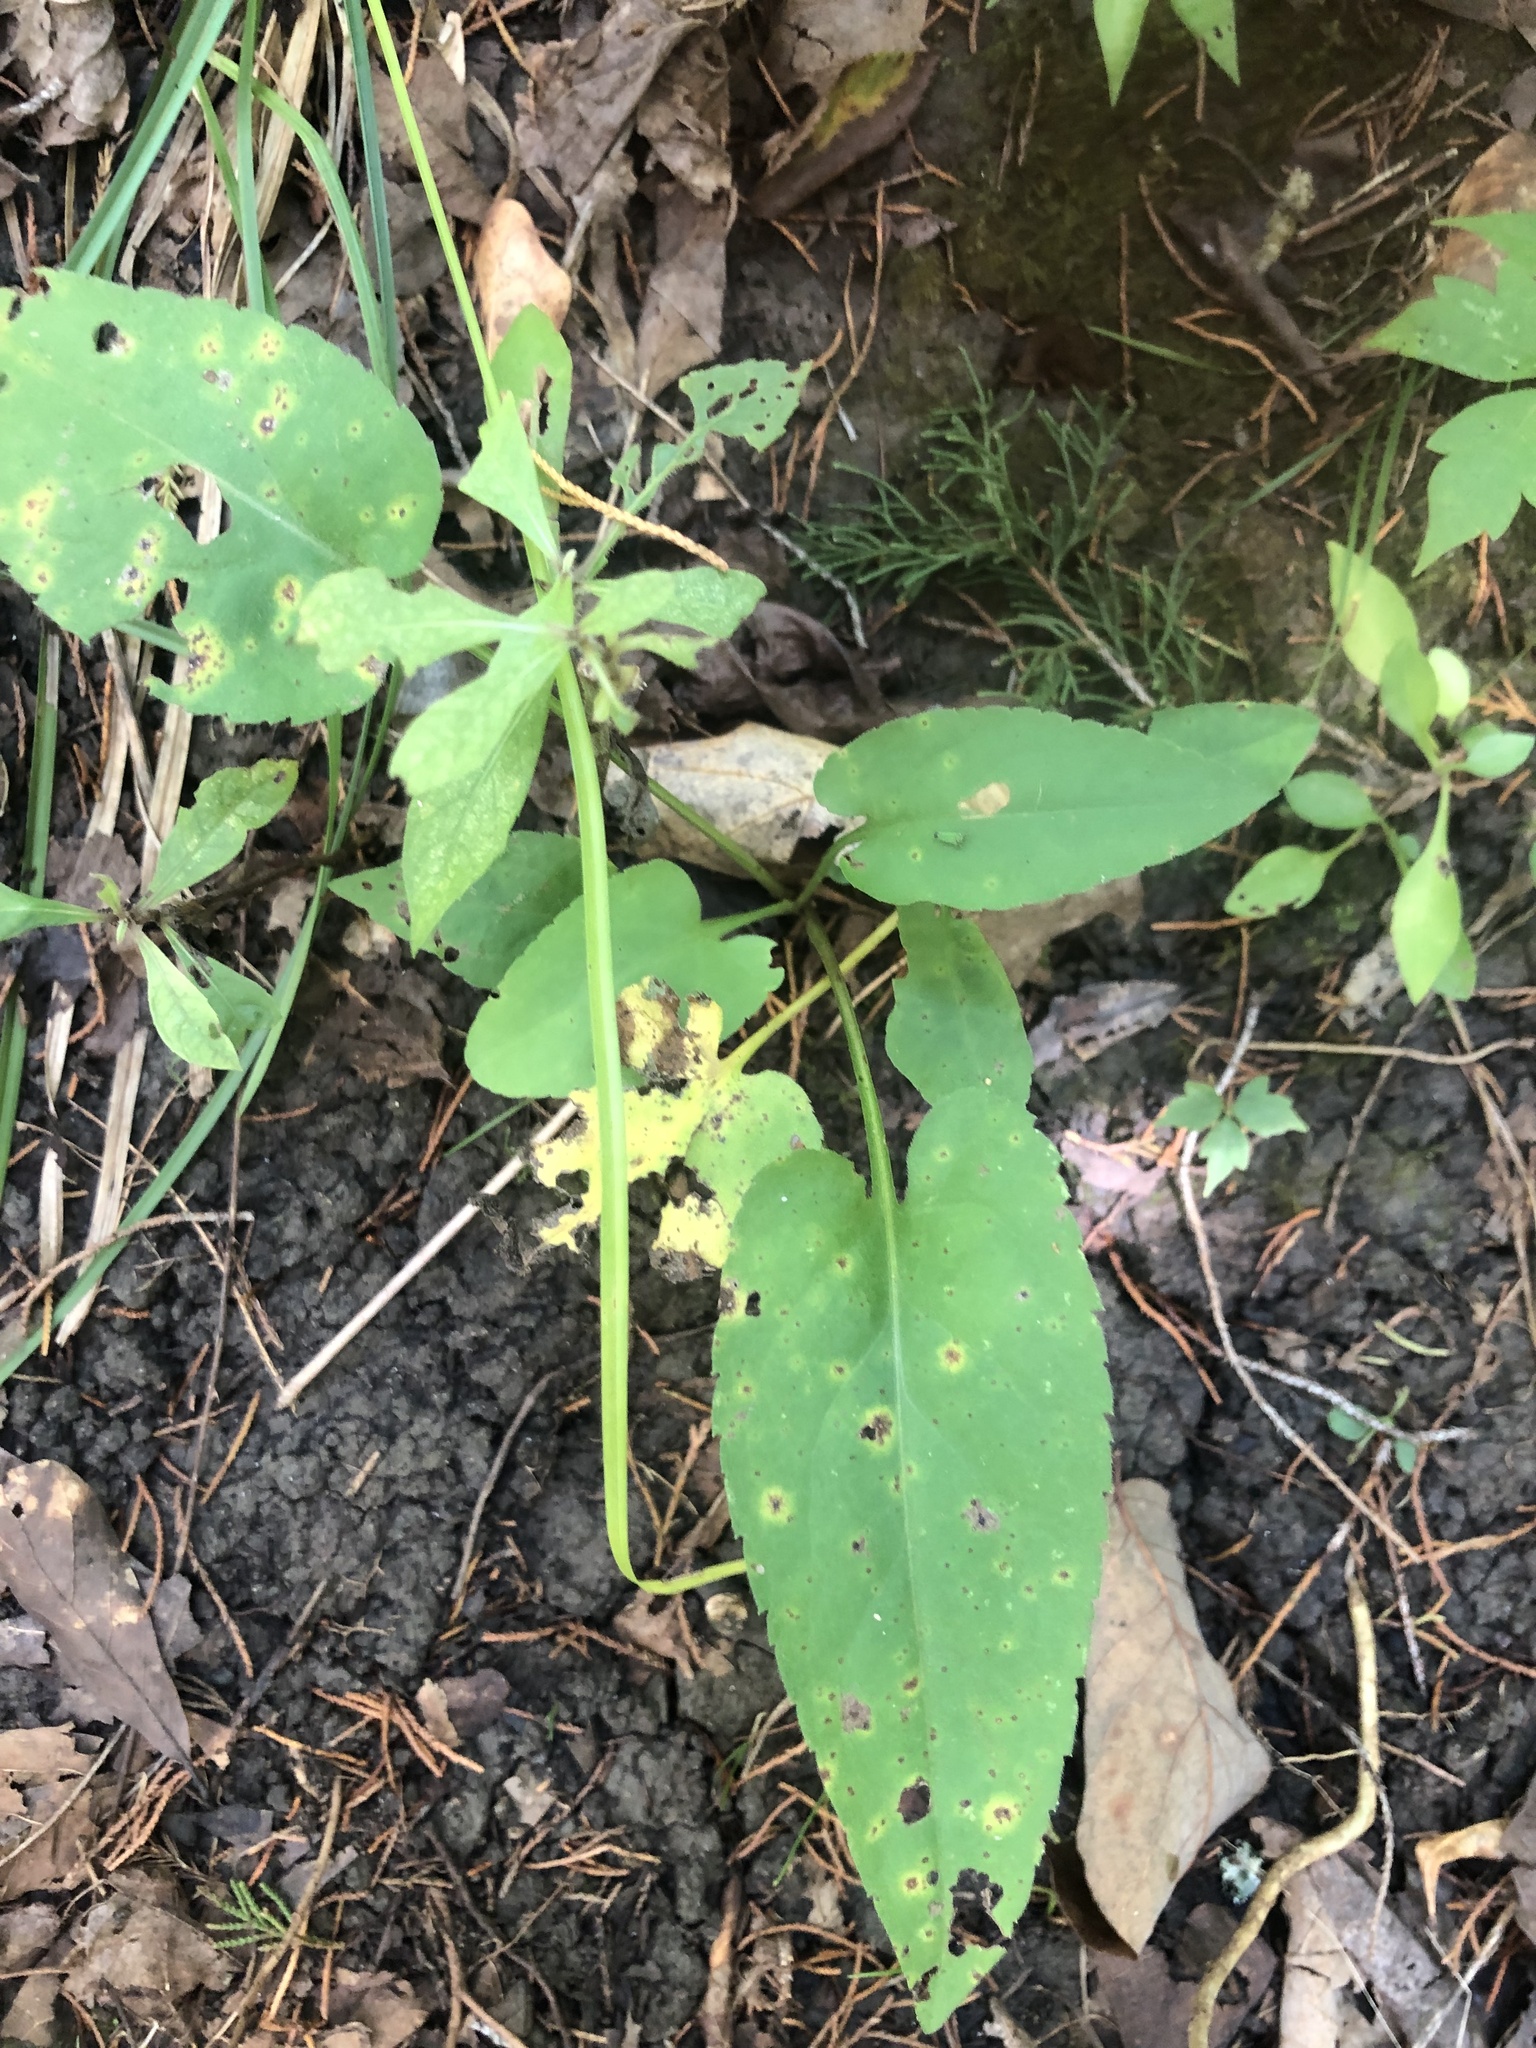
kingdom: Plantae
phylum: Tracheophyta
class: Magnoliopsida
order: Asterales
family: Asteraceae
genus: Symphyotrichum
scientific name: Symphyotrichum drummondii
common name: Drummond's aster
